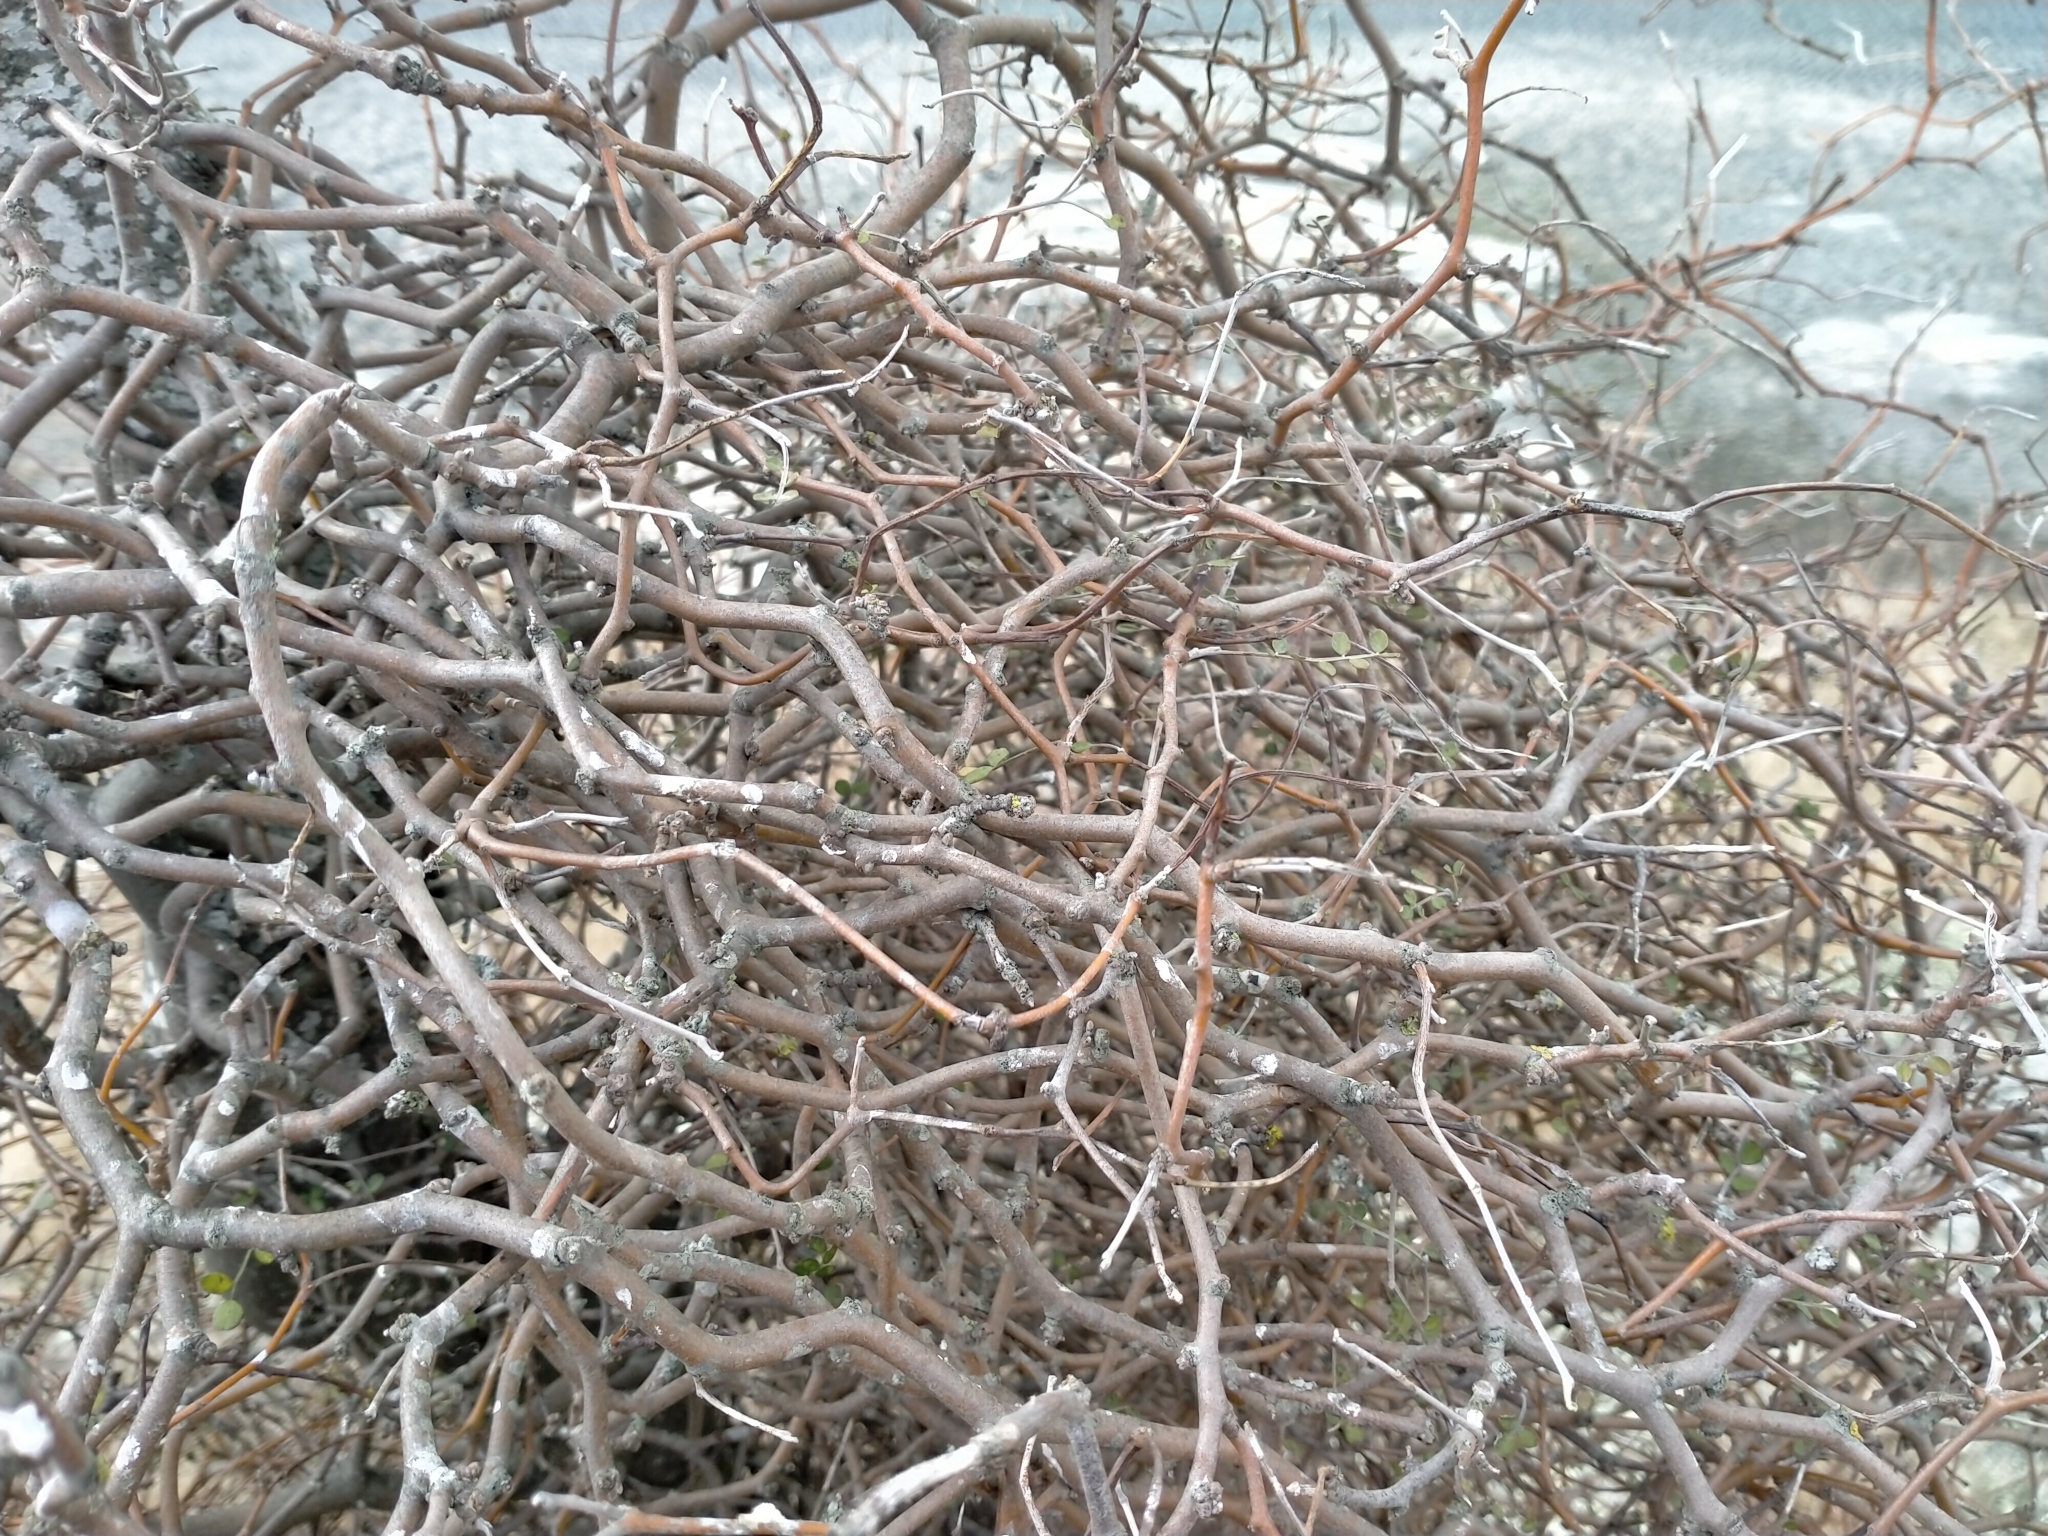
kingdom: Plantae
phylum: Tracheophyta
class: Magnoliopsida
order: Fabales
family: Fabaceae
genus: Sophora
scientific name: Sophora microphylla
